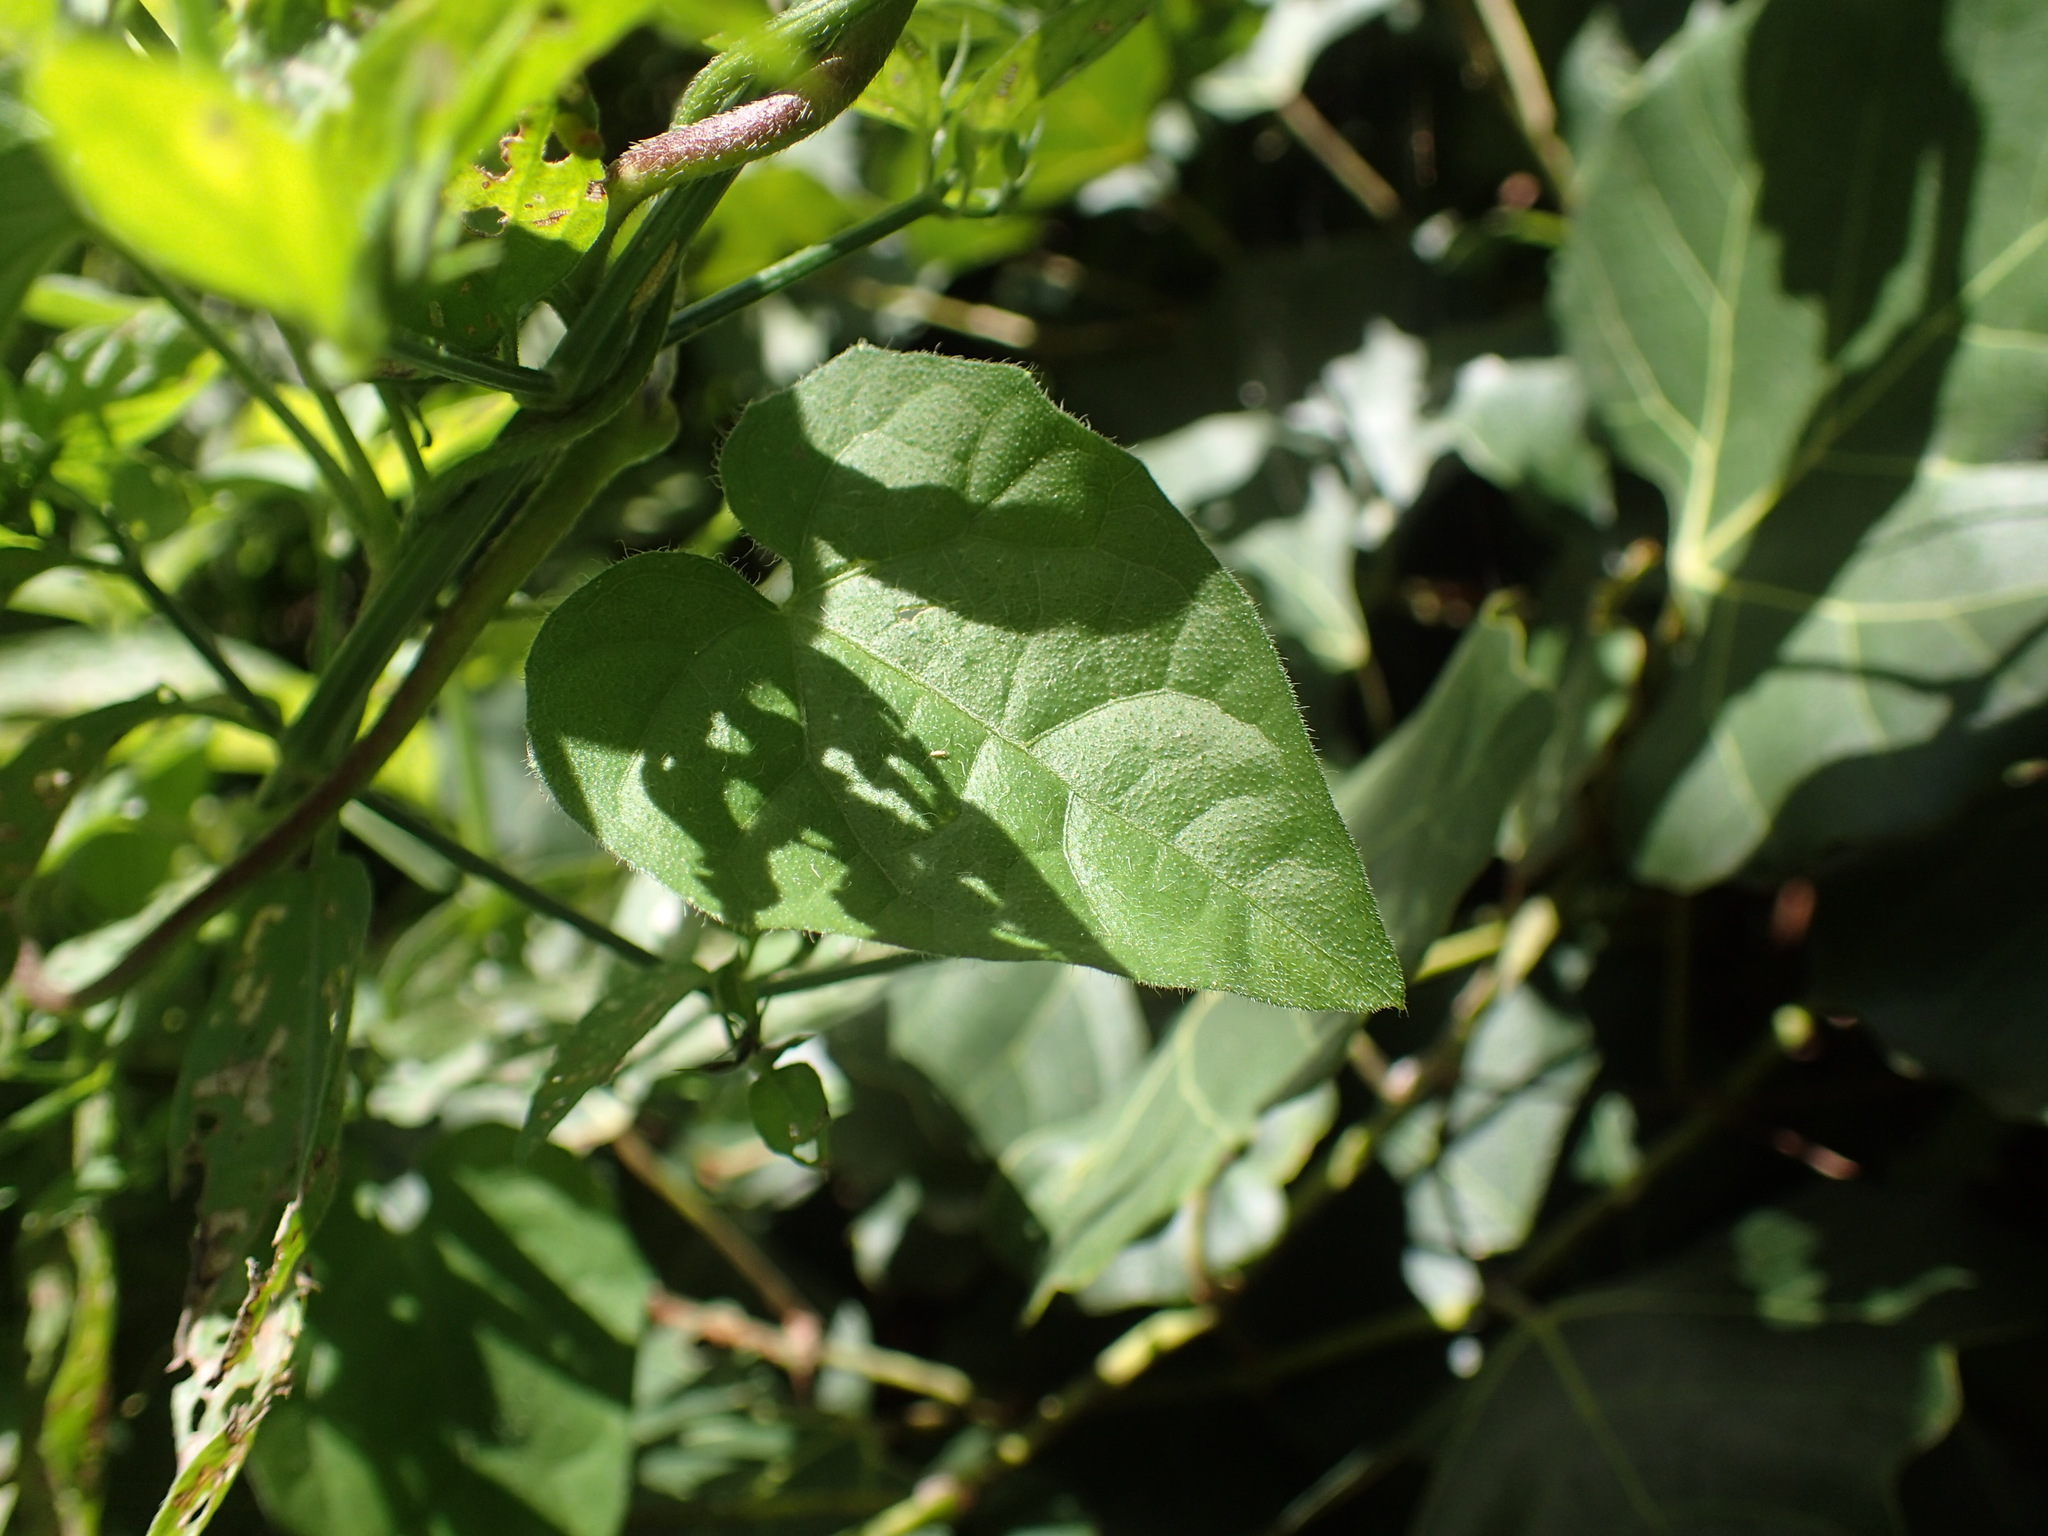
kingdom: Plantae
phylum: Tracheophyta
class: Magnoliopsida
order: Lamiales
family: Acanthaceae
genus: Thunbergia
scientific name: Thunbergia dregeana
